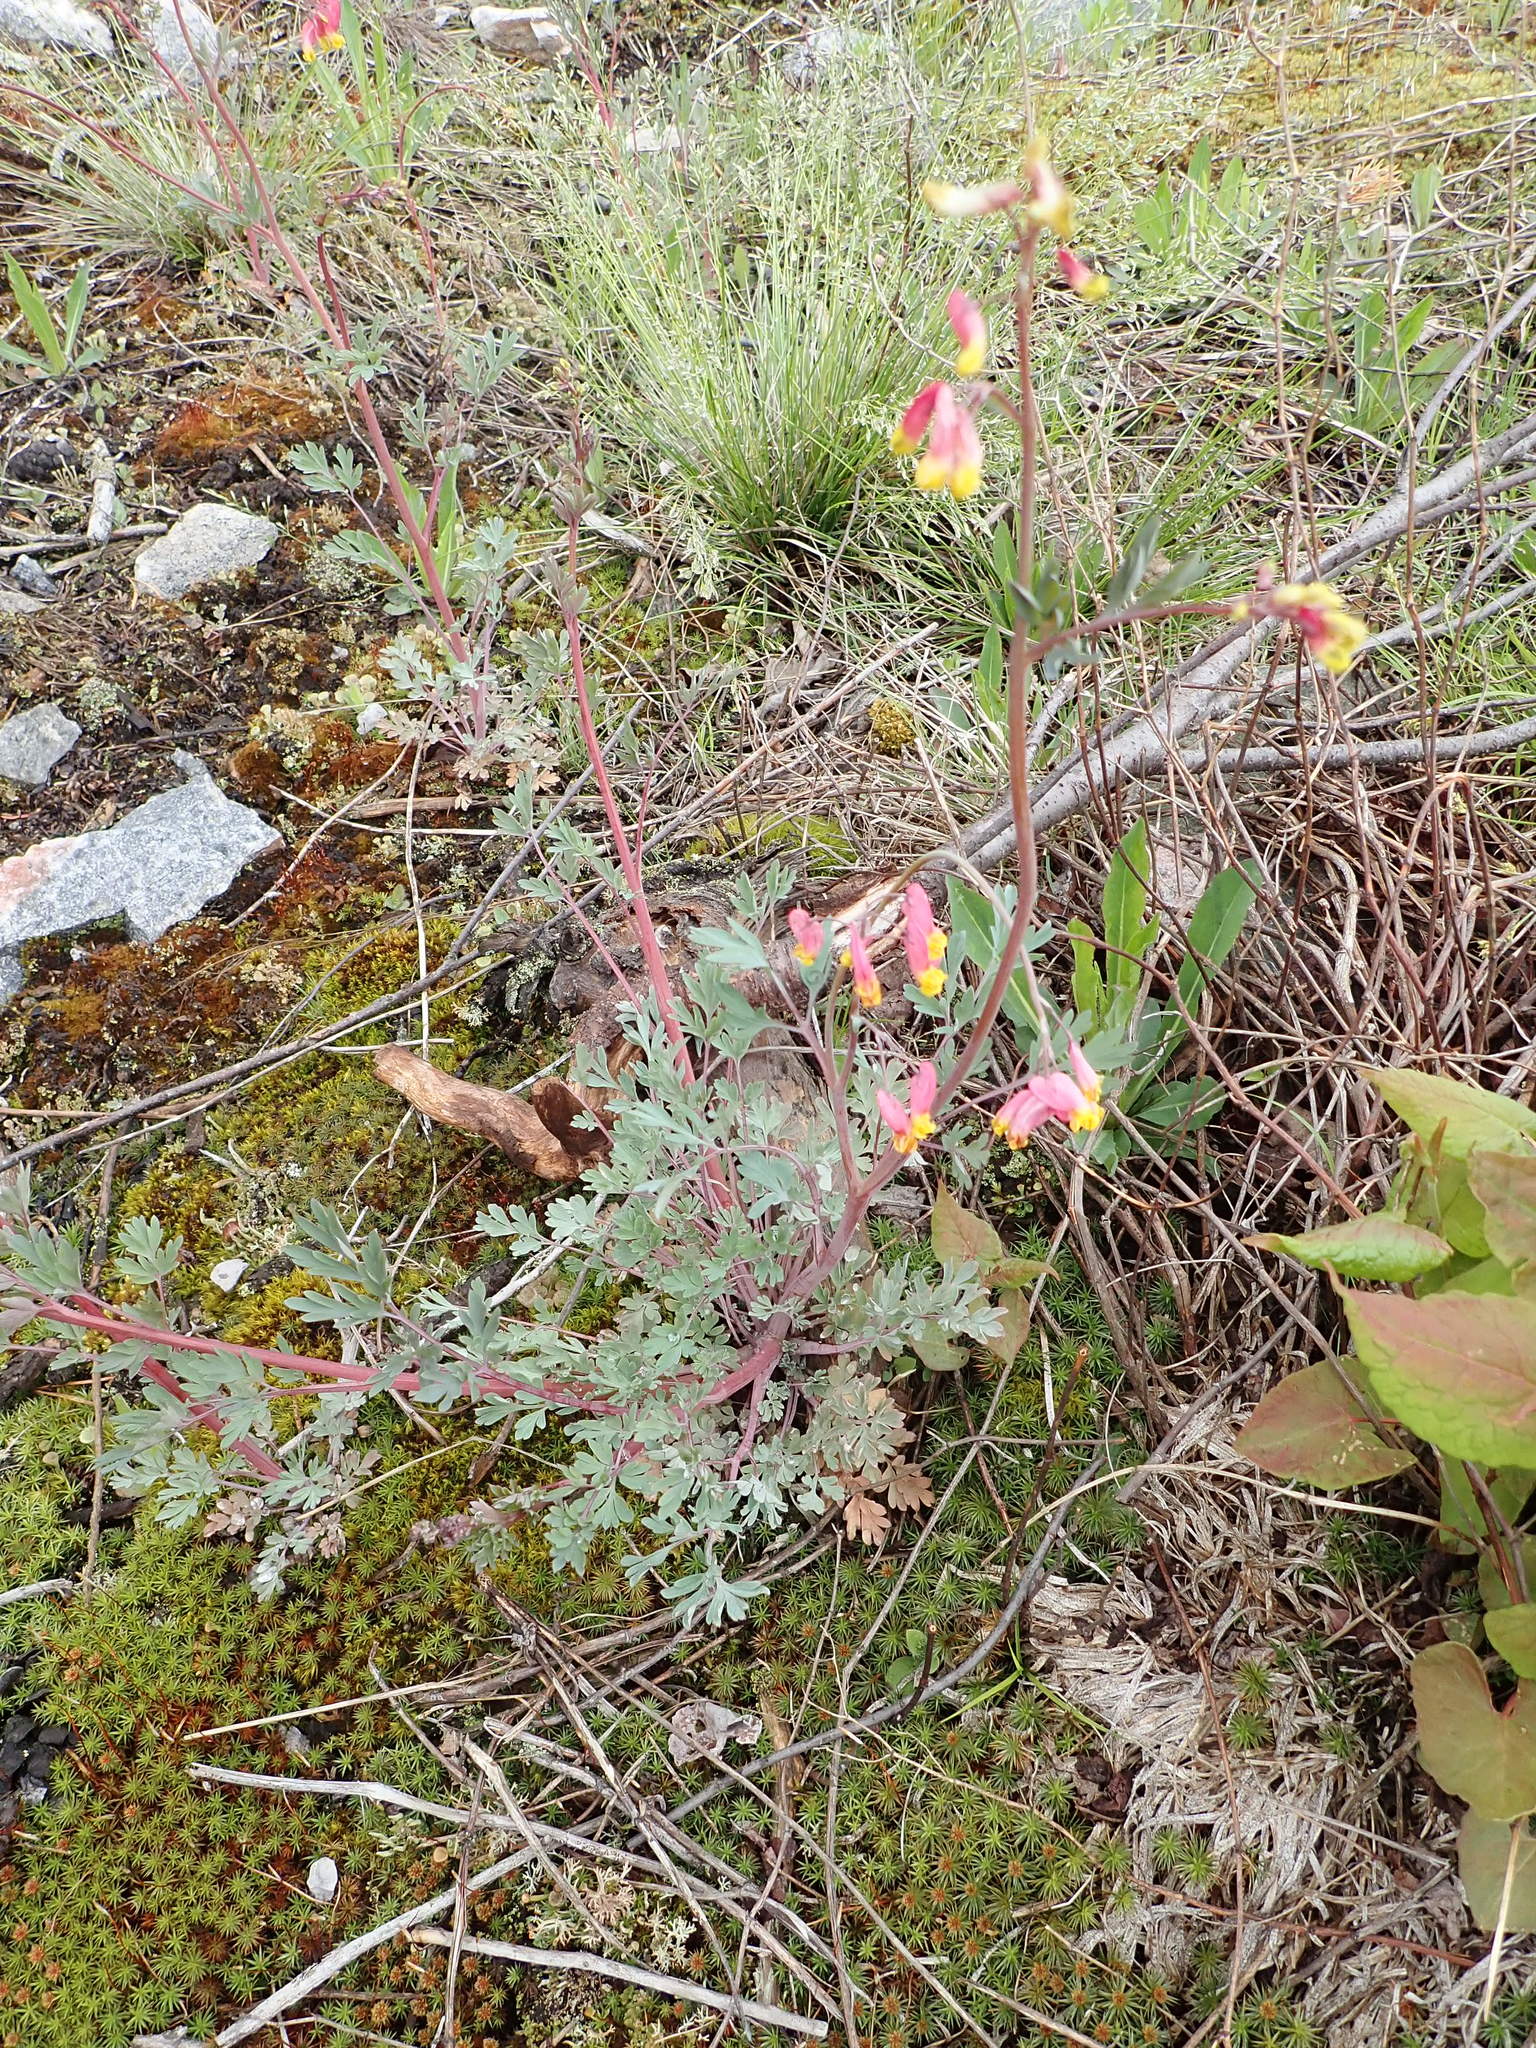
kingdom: Plantae
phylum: Tracheophyta
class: Magnoliopsida
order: Ranunculales
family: Papaveraceae
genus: Capnoides
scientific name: Capnoides sempervirens
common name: Rock harlequin
